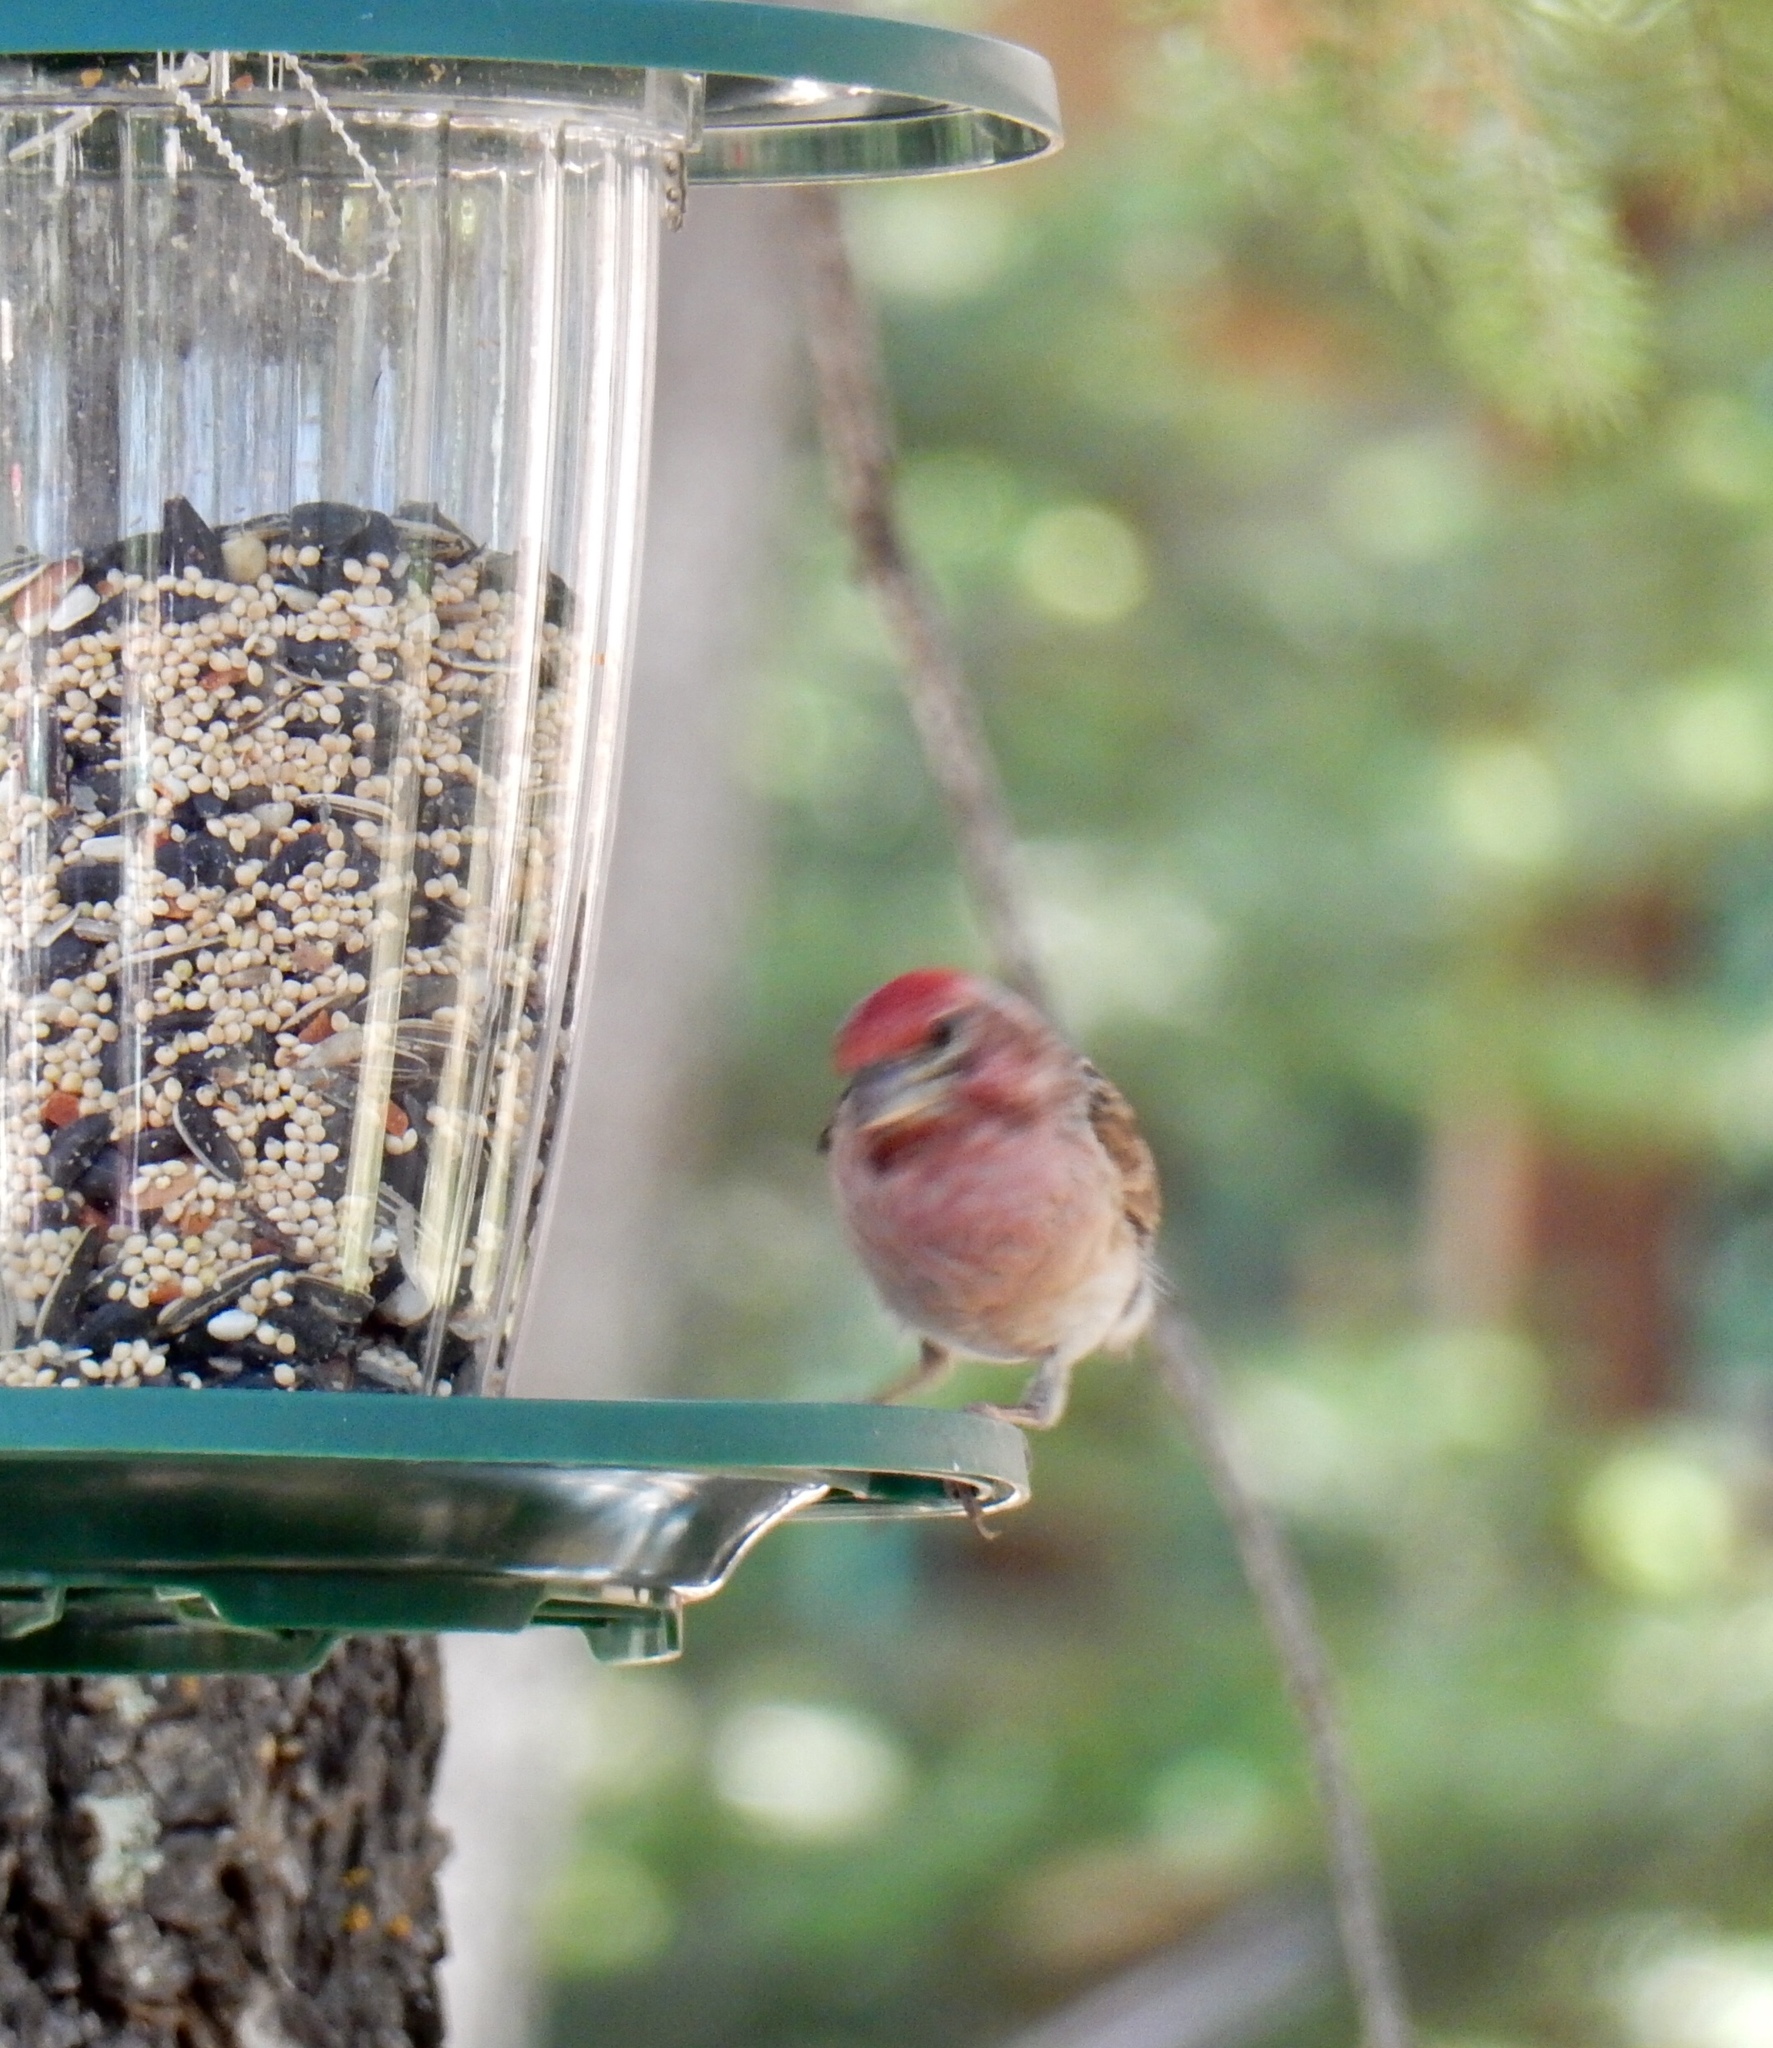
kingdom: Animalia
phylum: Chordata
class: Aves
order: Passeriformes
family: Fringillidae
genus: Haemorhous
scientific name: Haemorhous cassinii
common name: Cassin's finch
